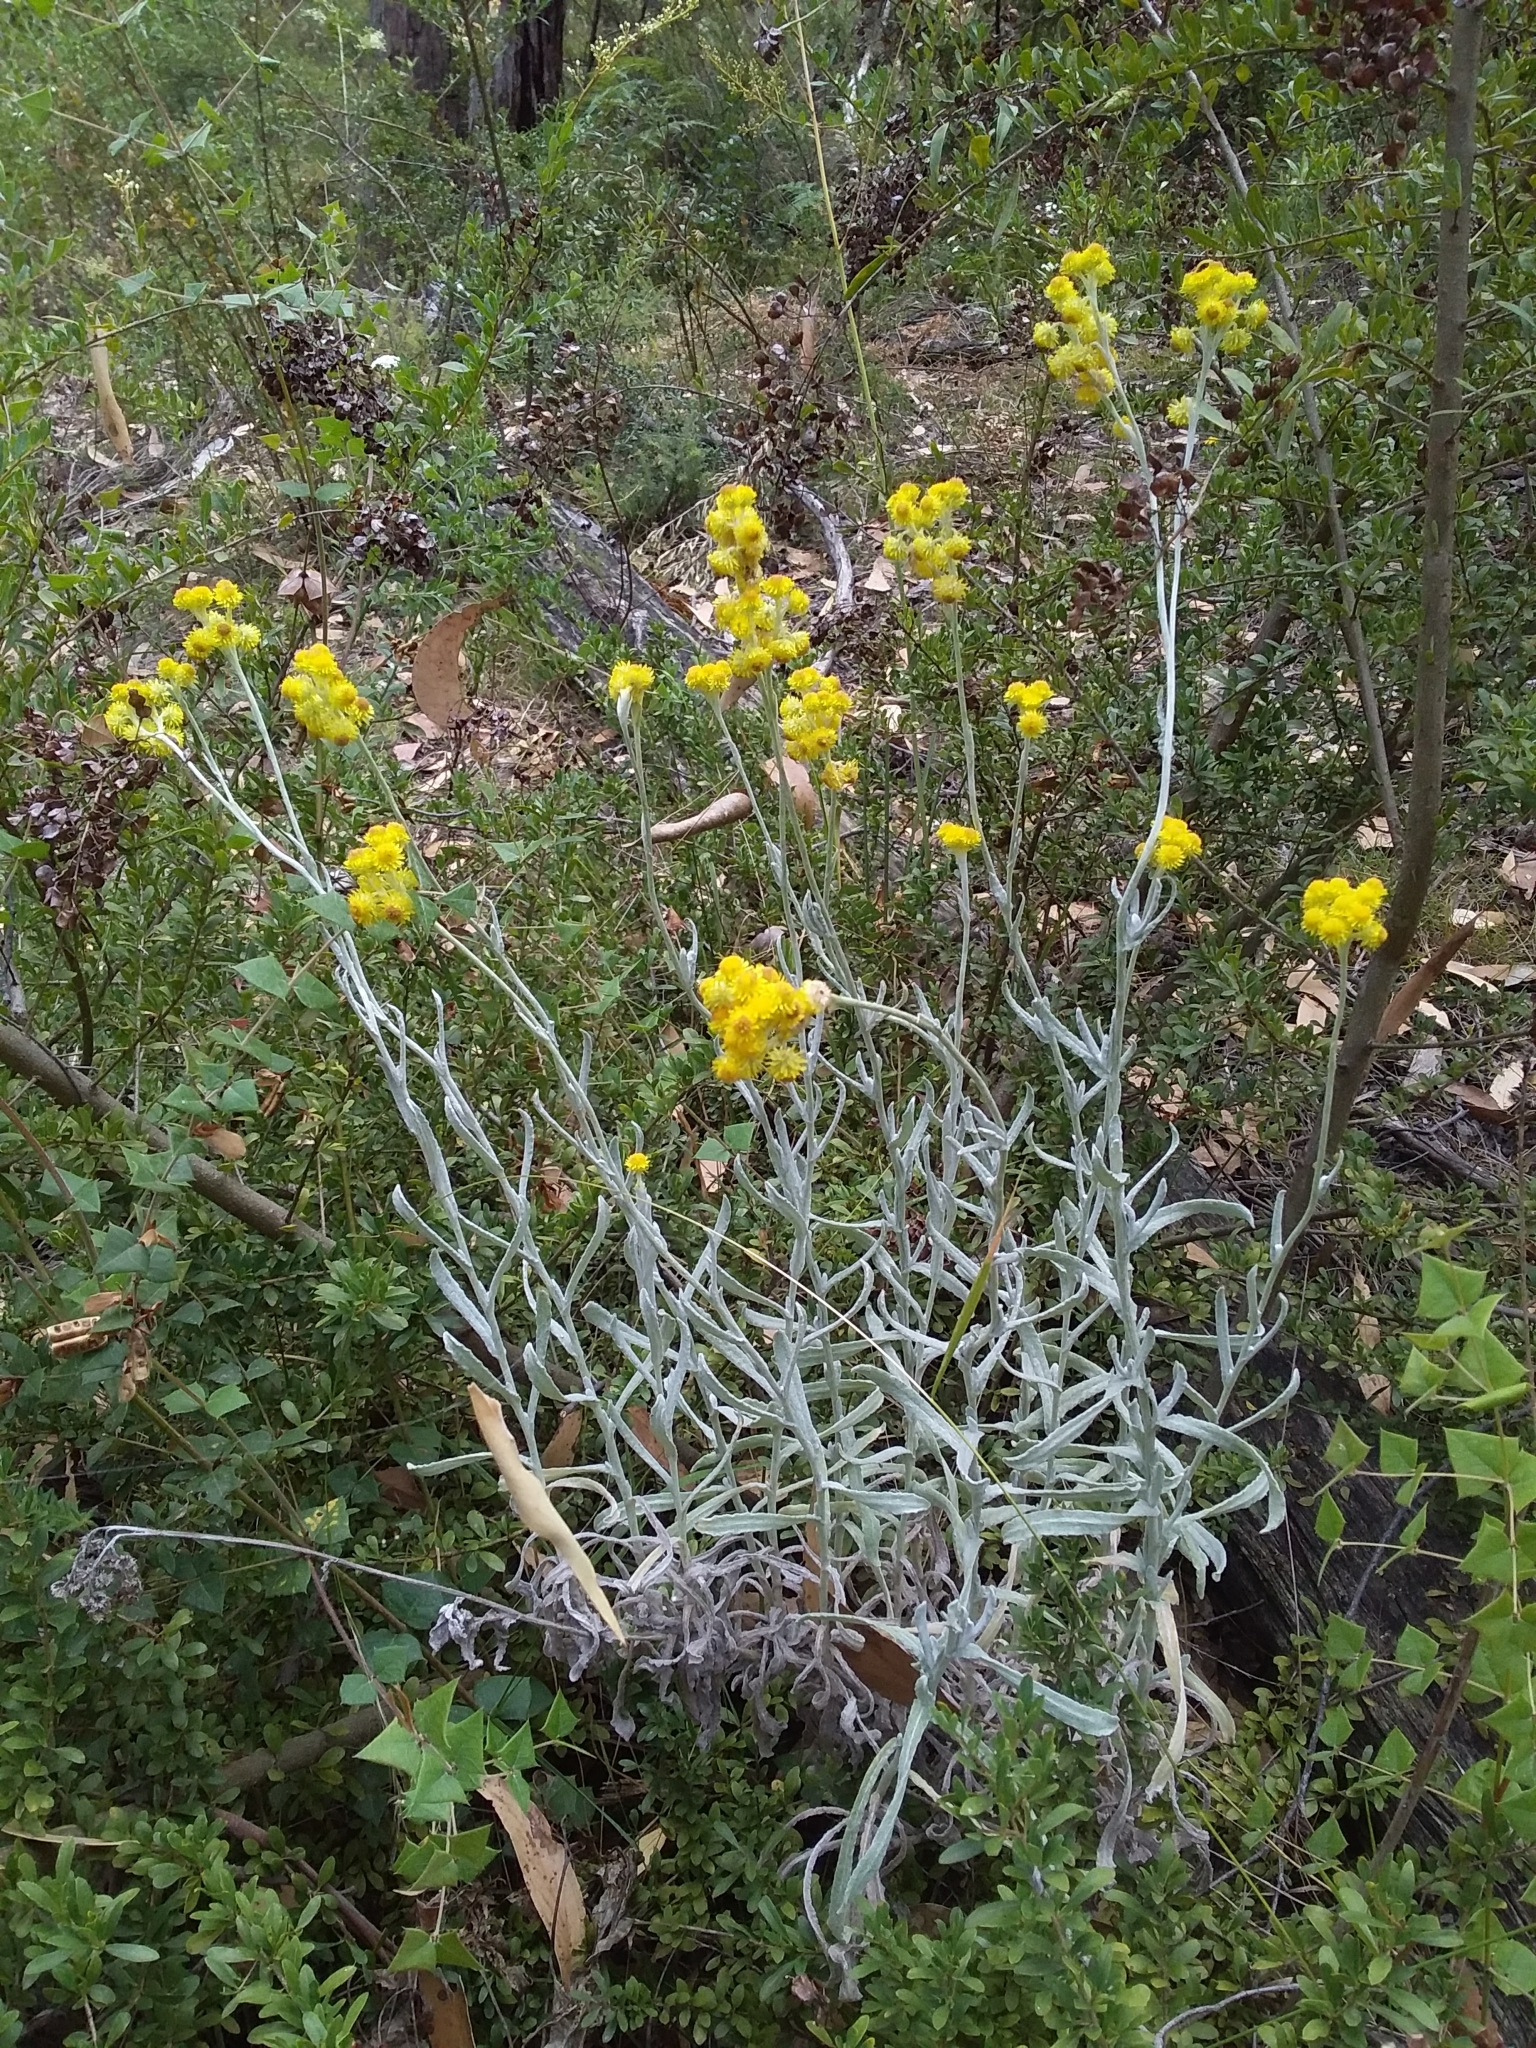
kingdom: Plantae
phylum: Tracheophyta
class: Magnoliopsida
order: Asterales
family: Asteraceae
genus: Chrysocephalum
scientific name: Chrysocephalum apiculatum
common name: Common everlasting
